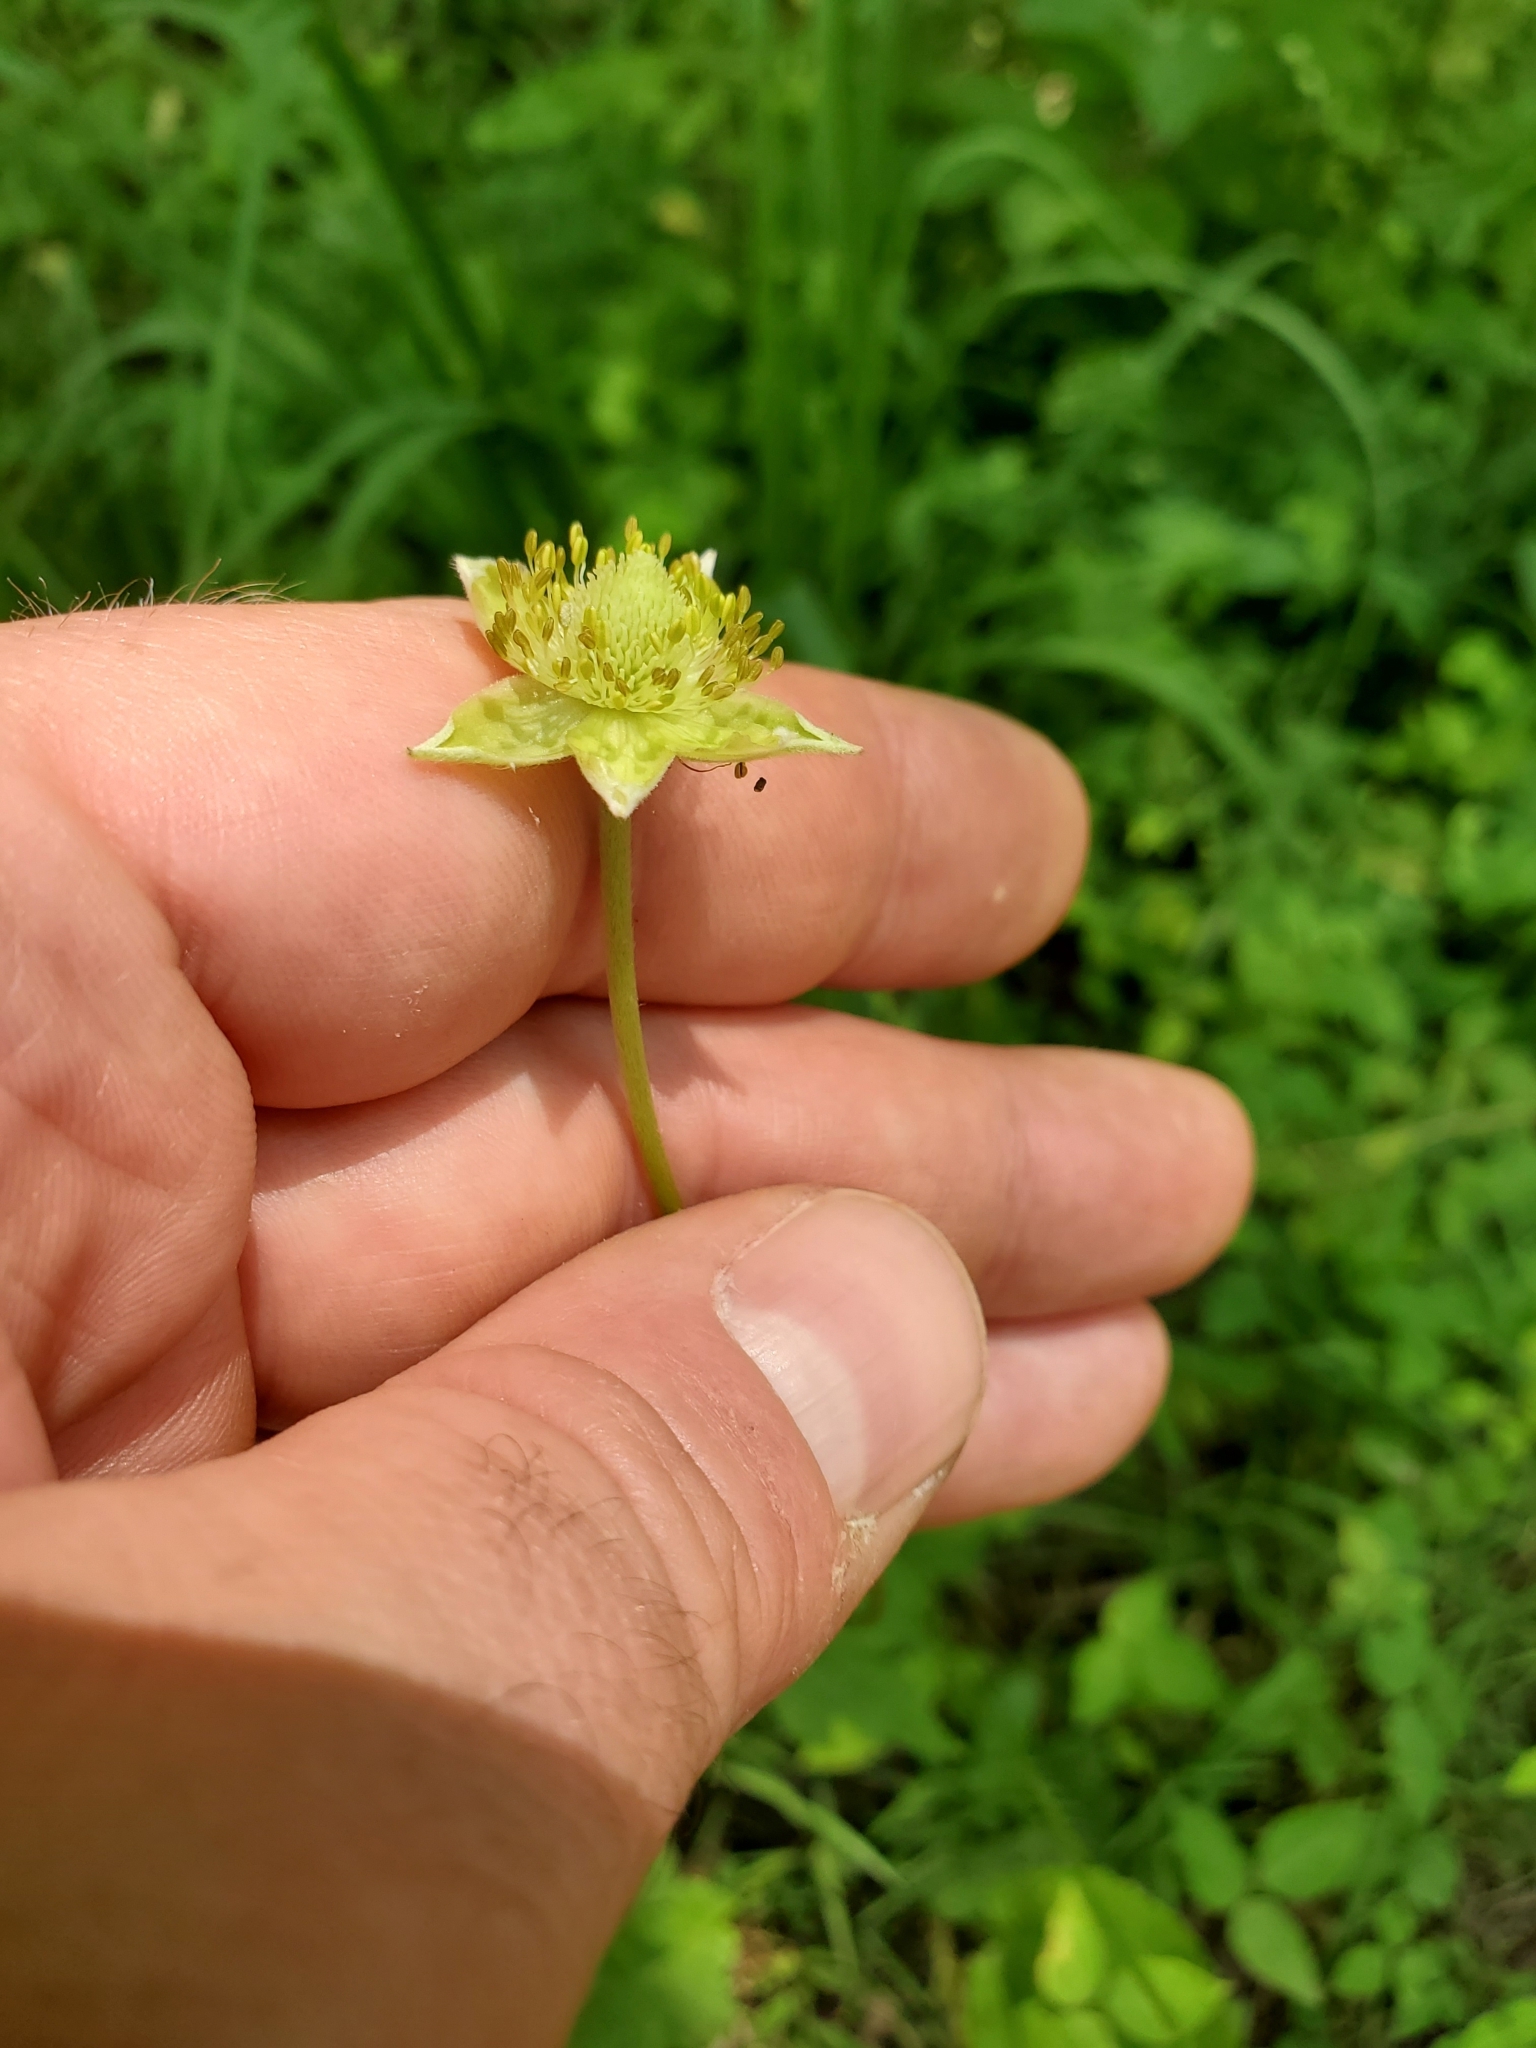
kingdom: Plantae
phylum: Tracheophyta
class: Magnoliopsida
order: Ranunculales
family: Ranunculaceae
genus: Anemone
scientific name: Anemone virginiana
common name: Tall anemone
